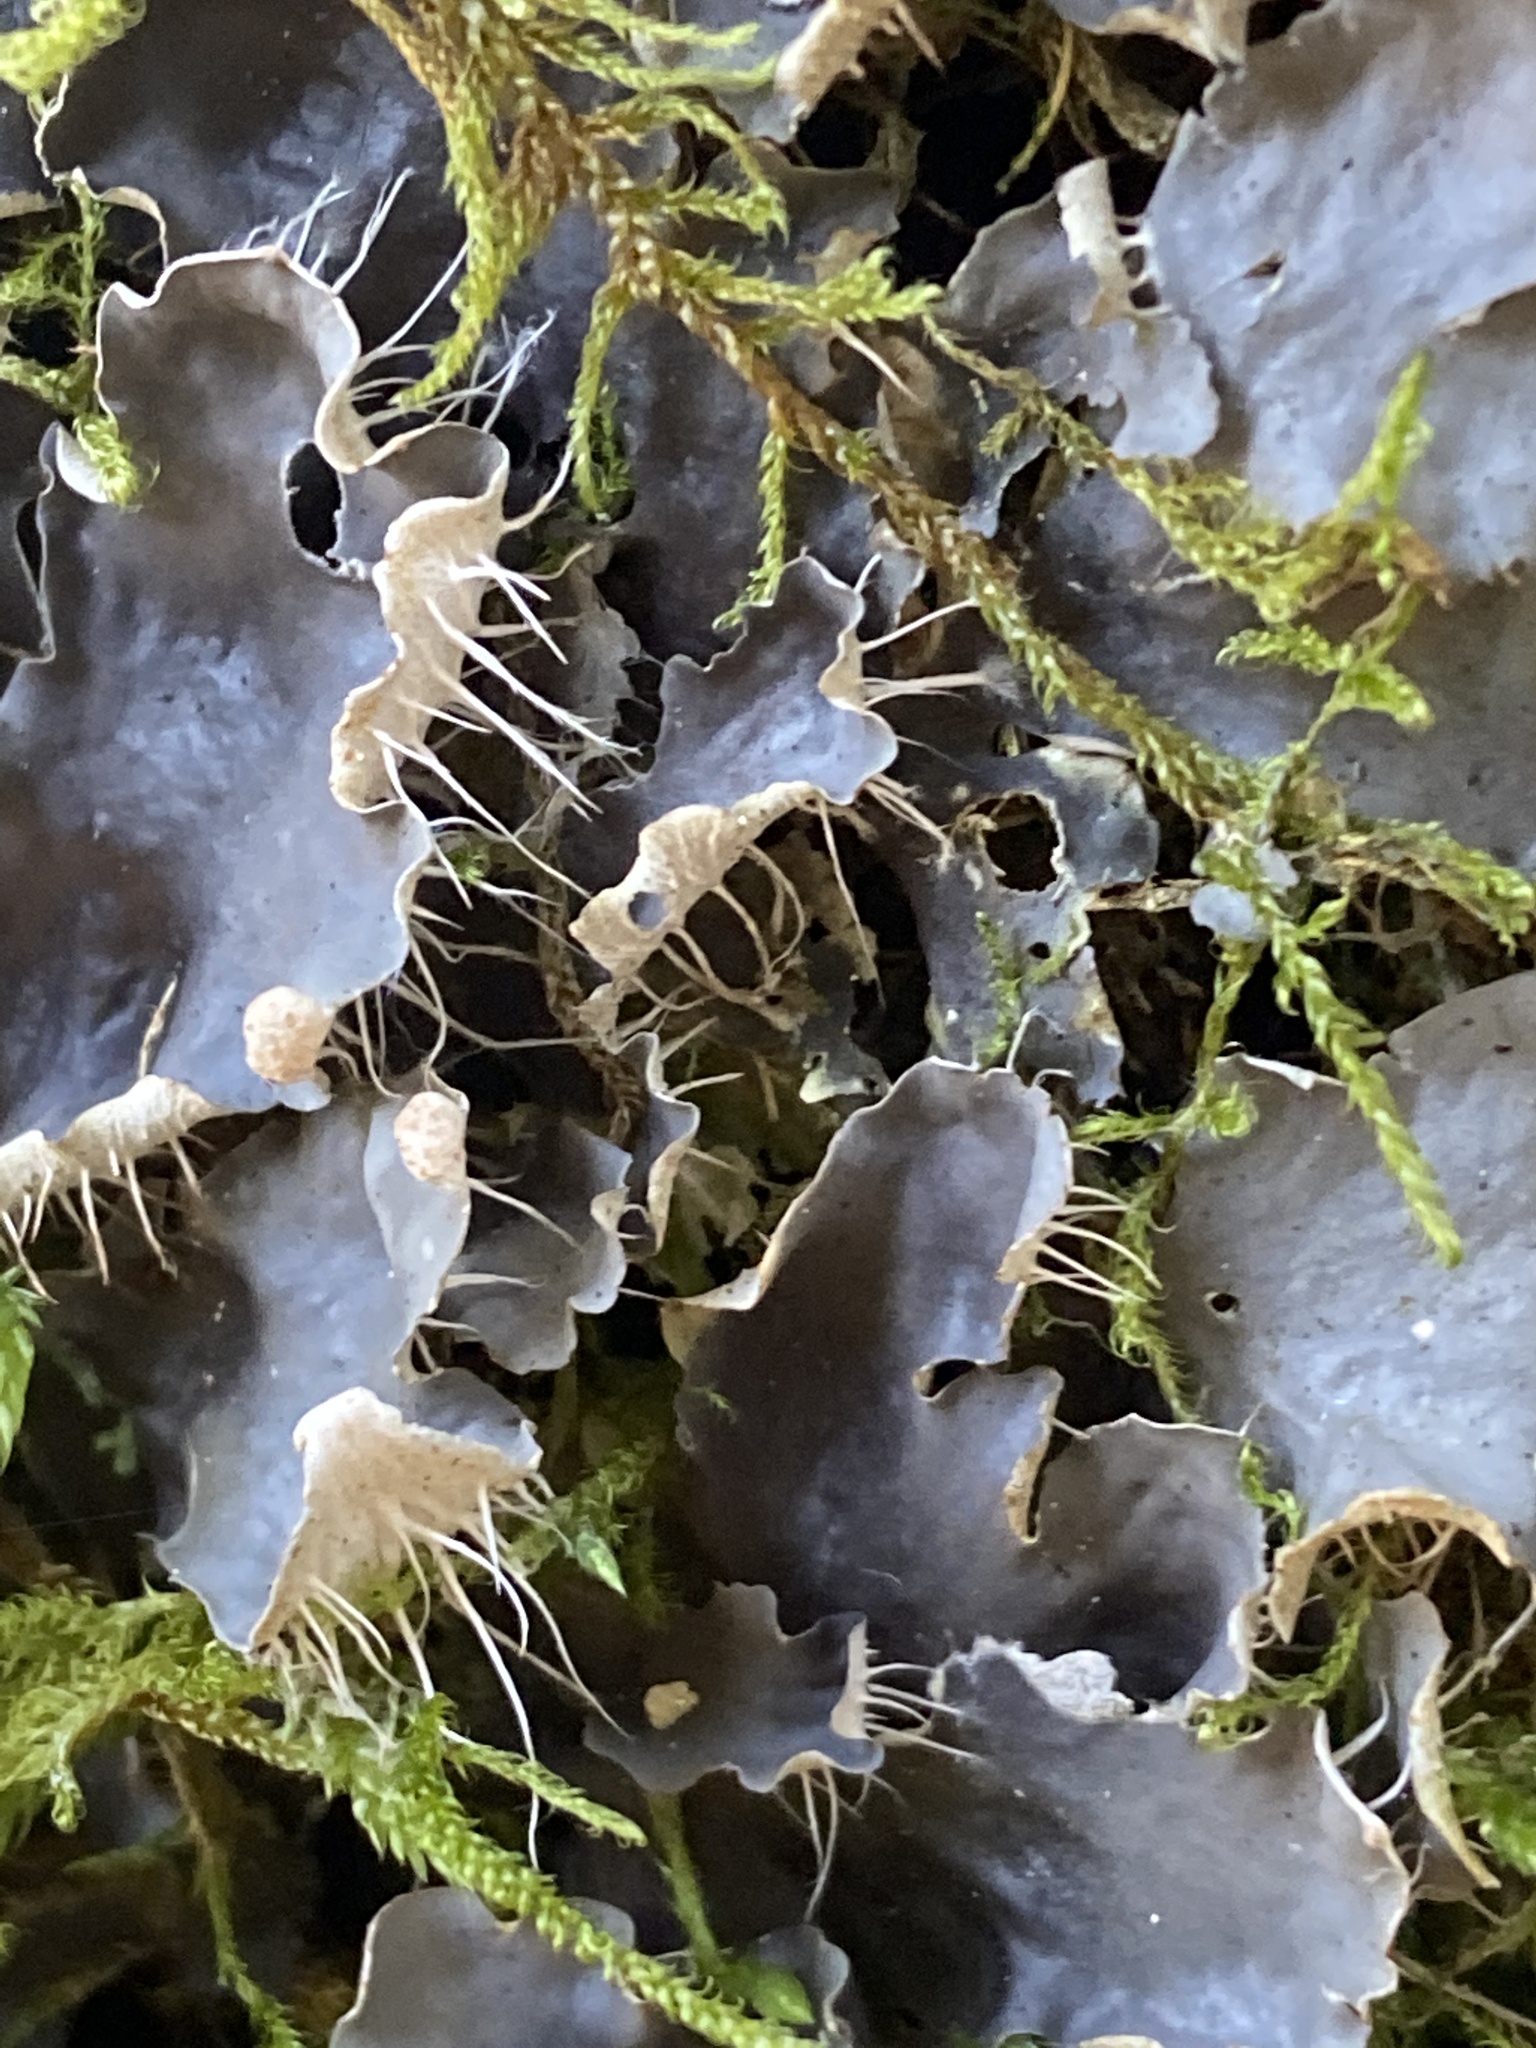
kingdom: Fungi
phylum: Ascomycota
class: Lecanoromycetes
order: Peltigerales
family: Peltigeraceae
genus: Peltigera
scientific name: Peltigera praetextata
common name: Scaly dog-lichen
